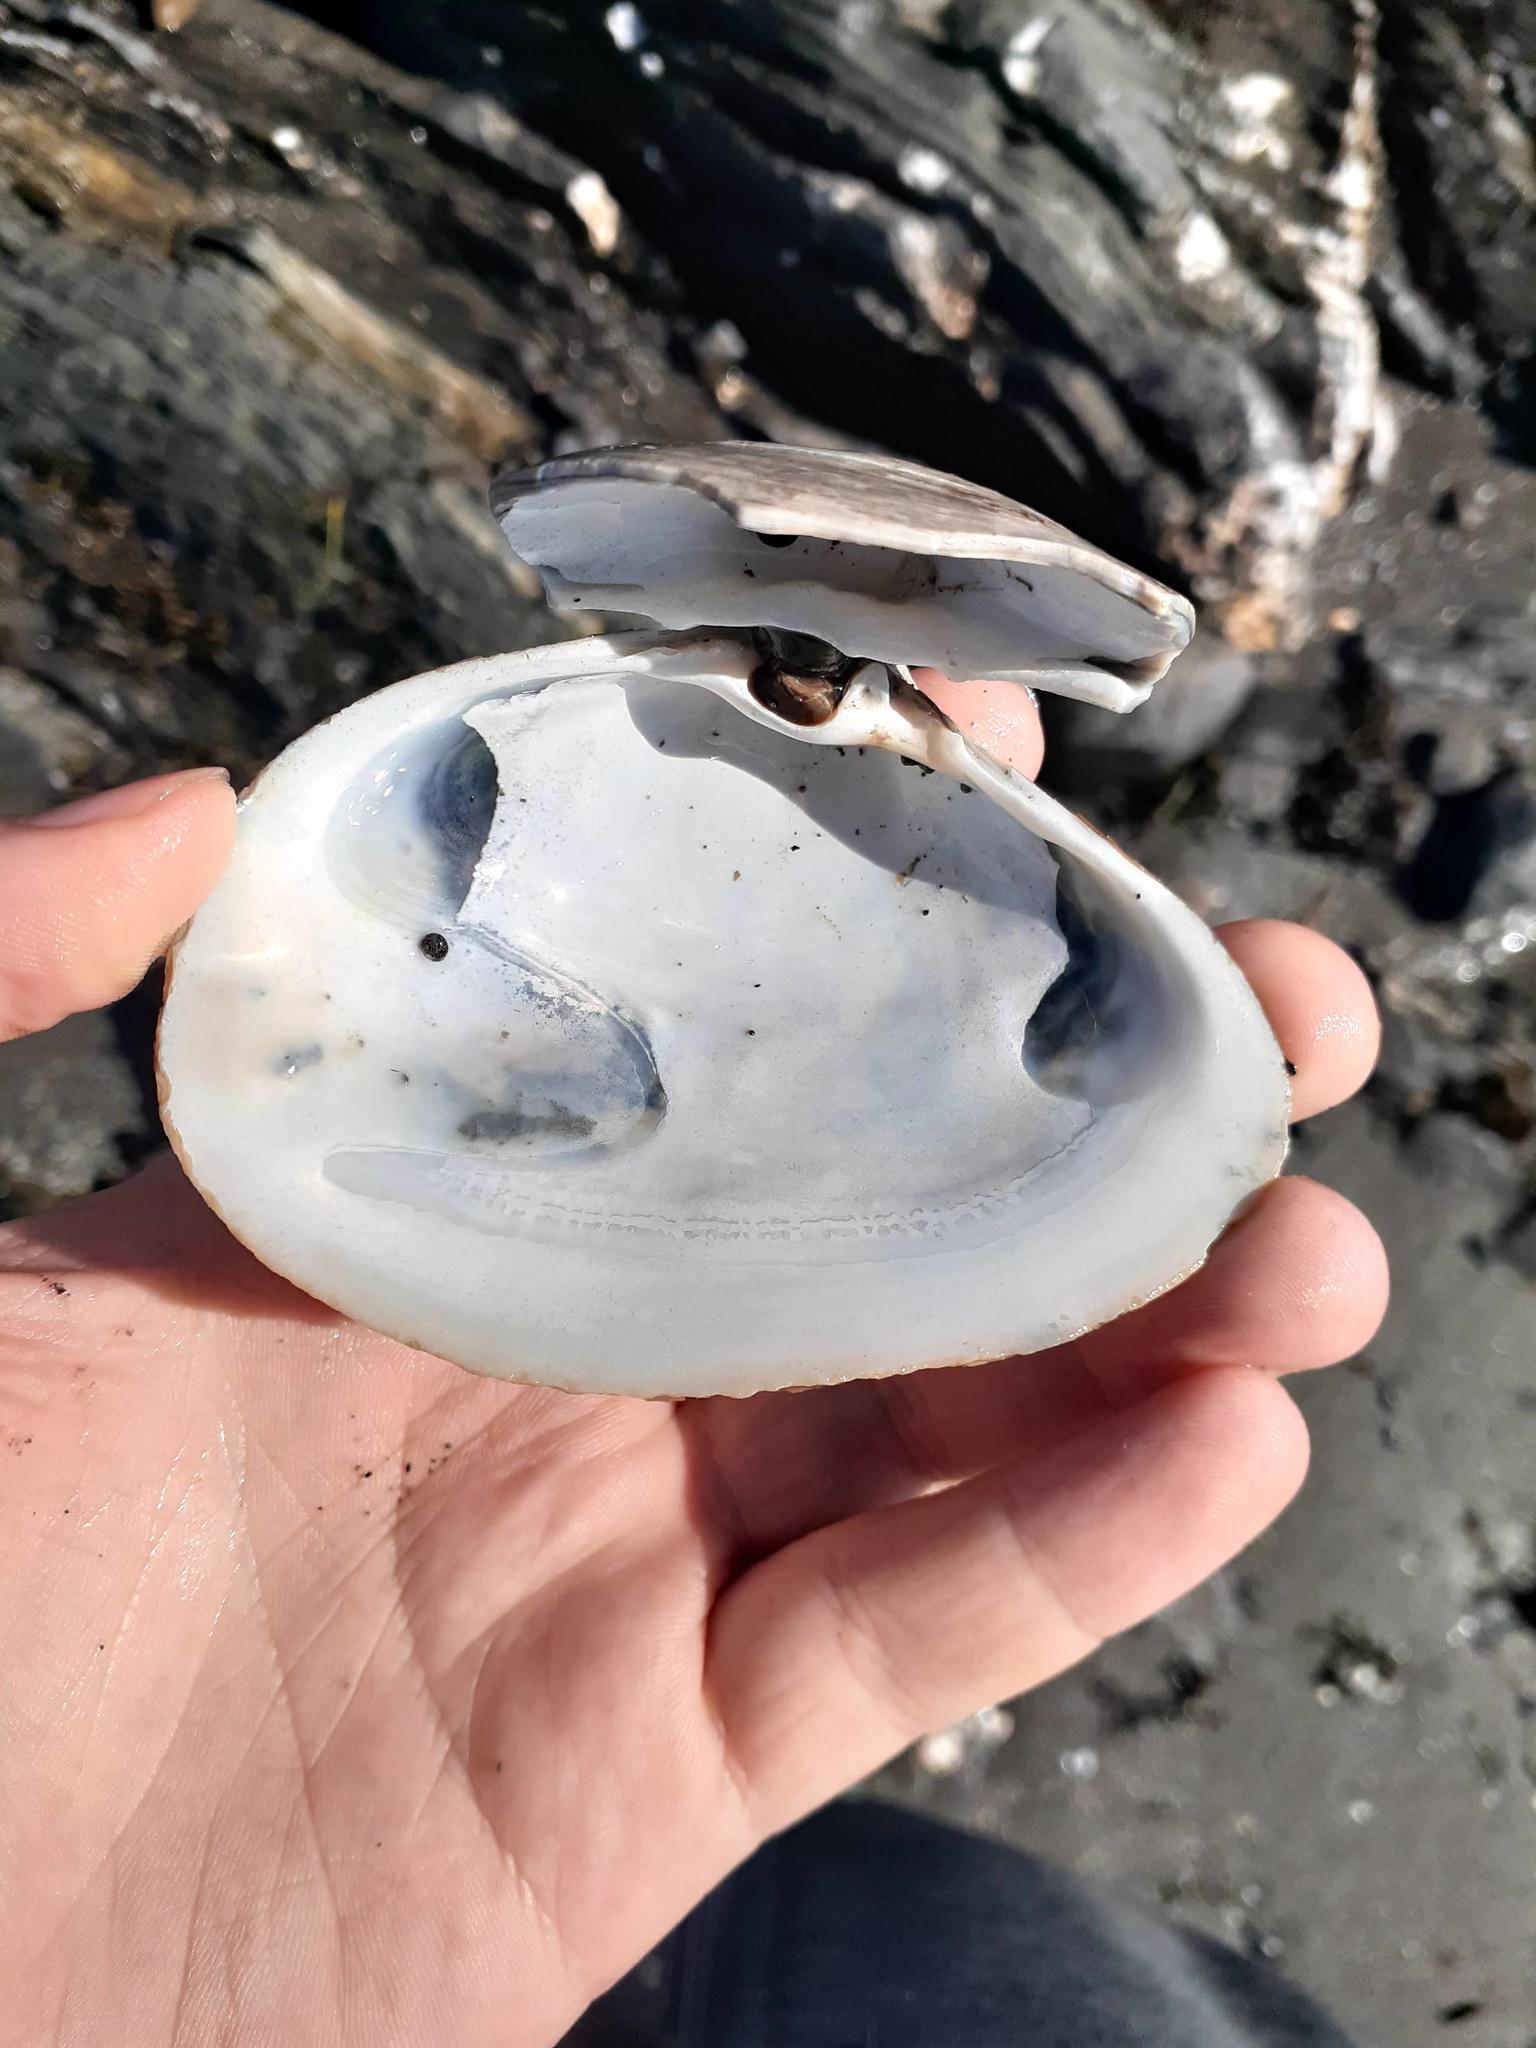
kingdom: Animalia
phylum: Mollusca
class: Bivalvia
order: Venerida
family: Mactridae
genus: Mactromeris
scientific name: Mactromeris polynyma
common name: Arctic surf clam
